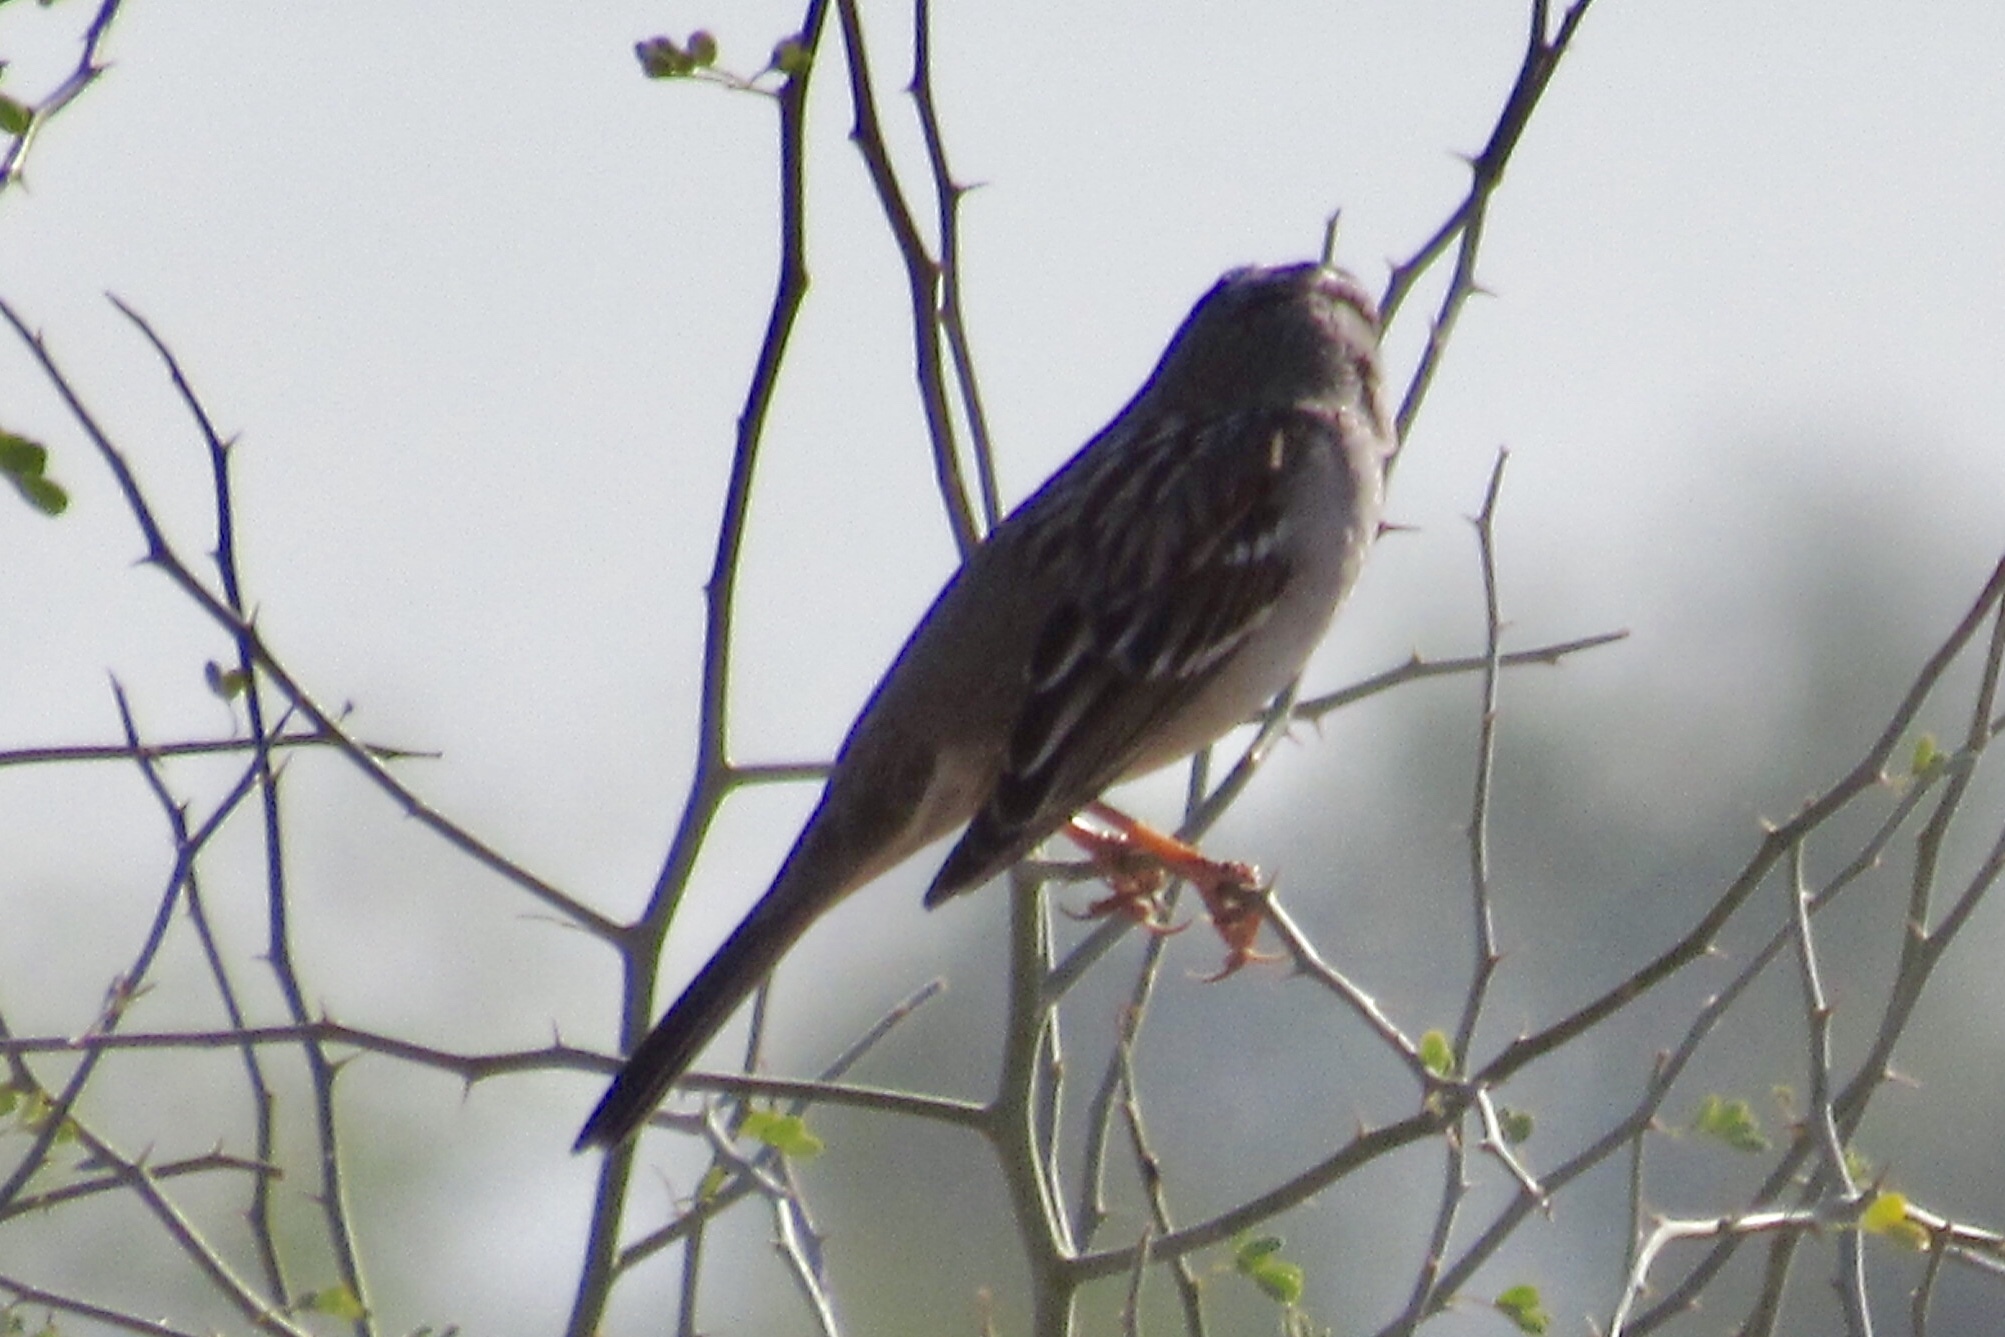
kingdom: Animalia
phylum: Chordata
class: Aves
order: Passeriformes
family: Passerellidae
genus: Zonotrichia
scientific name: Zonotrichia leucophrys
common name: White-crowned sparrow
